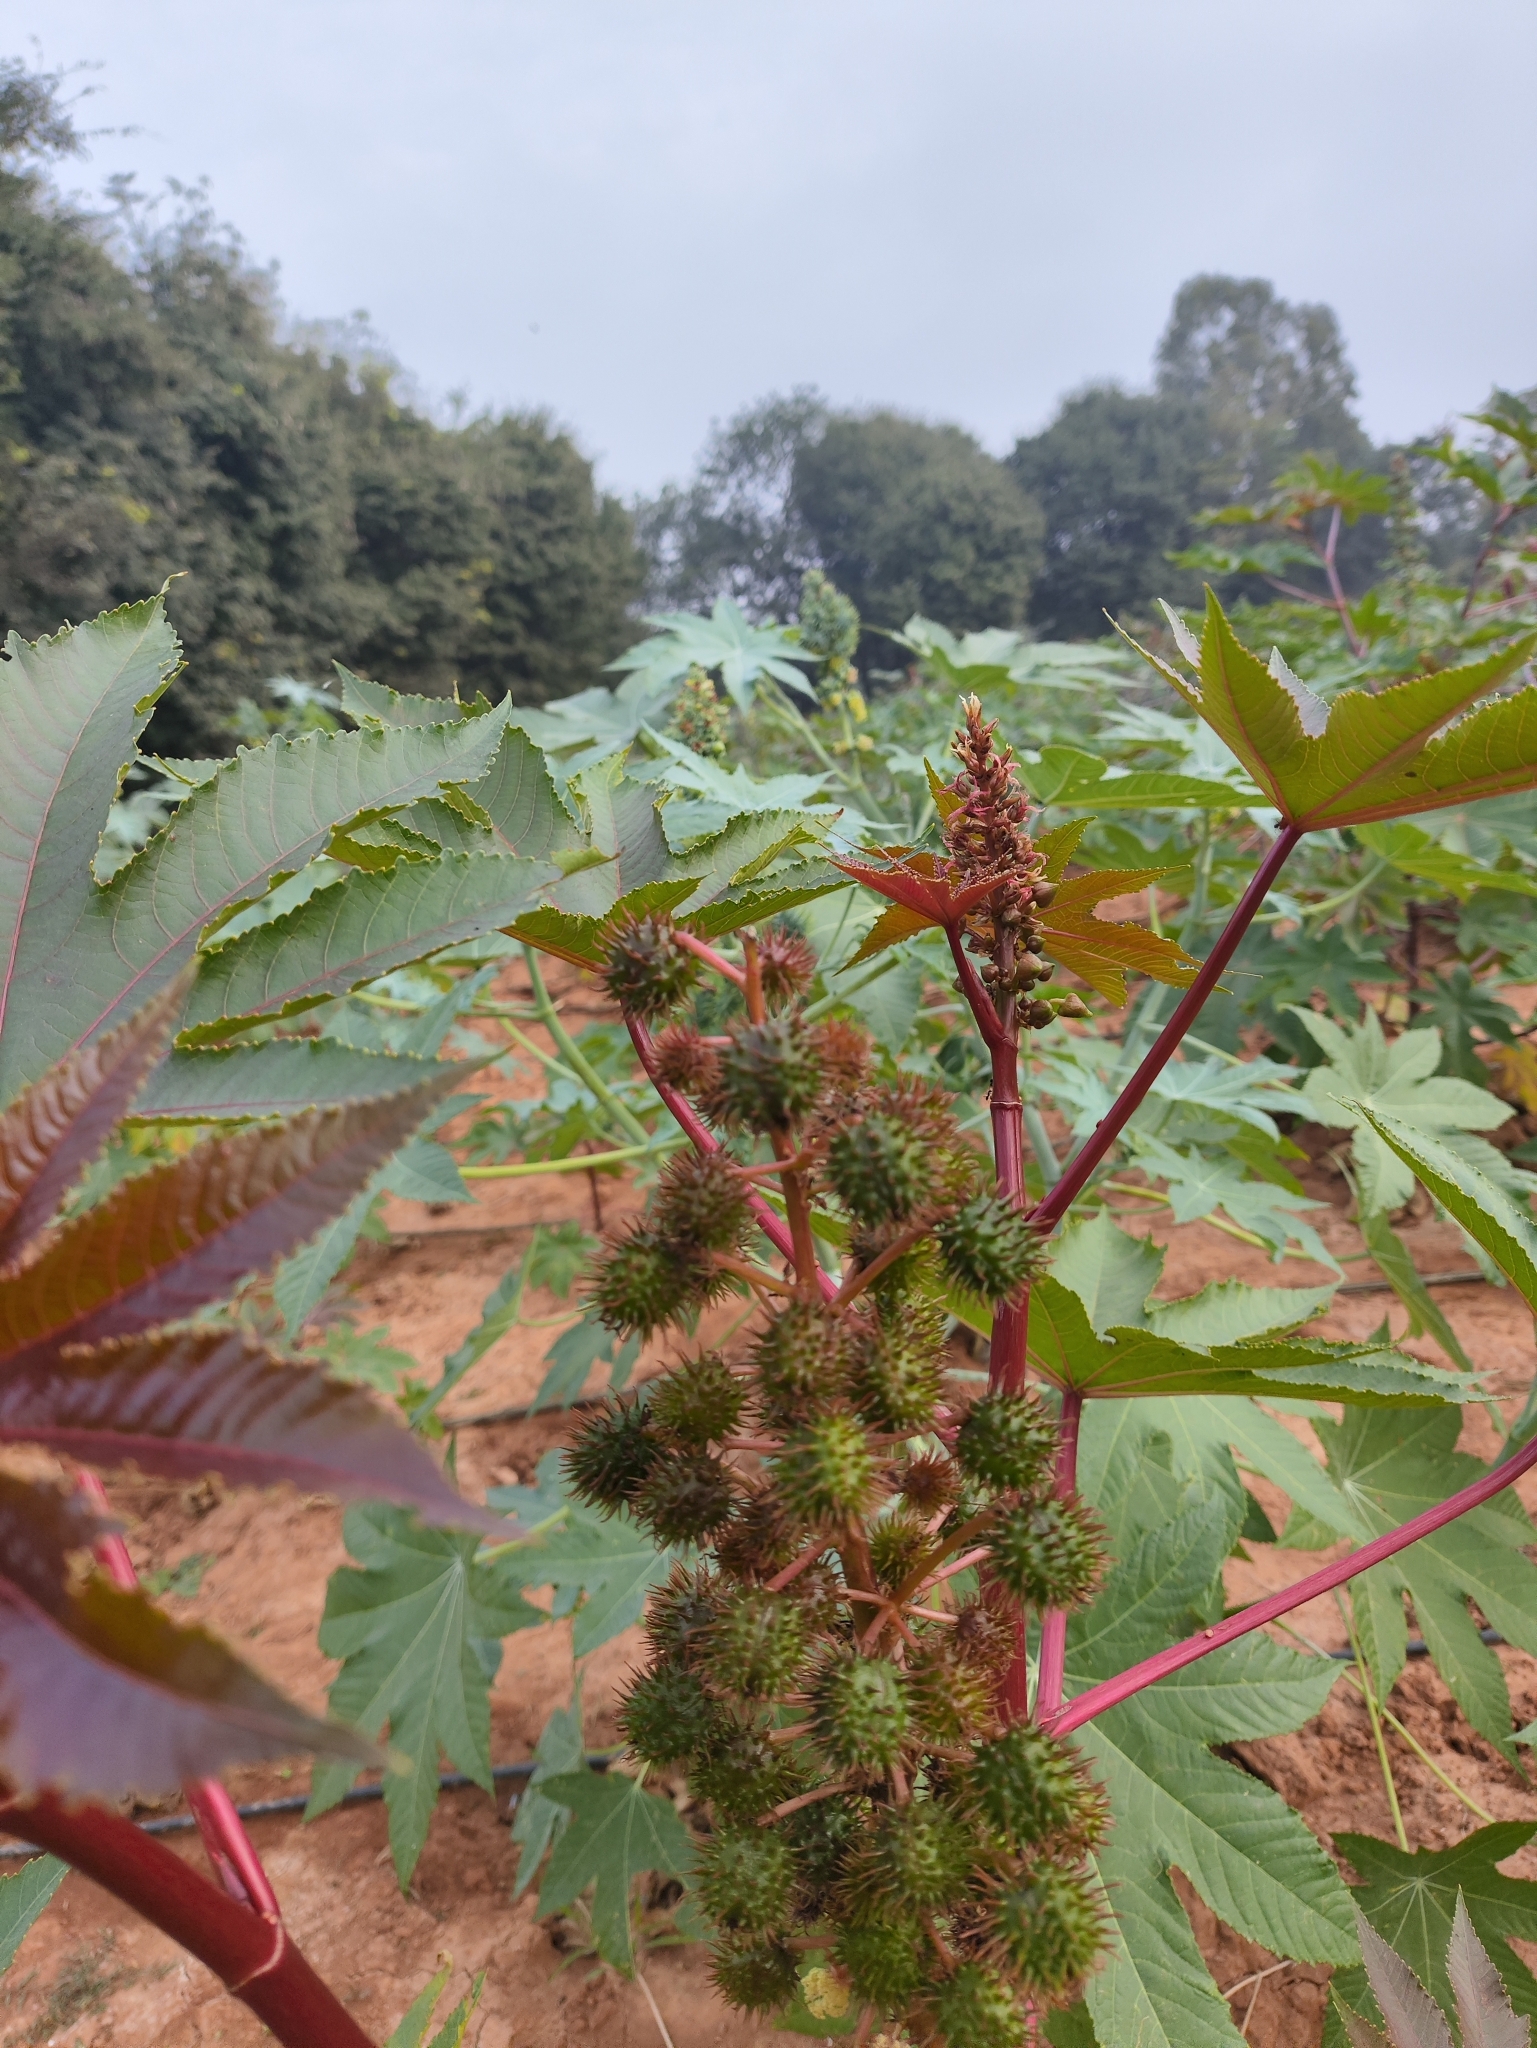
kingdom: Plantae
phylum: Tracheophyta
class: Magnoliopsida
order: Malpighiales
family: Euphorbiaceae
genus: Ricinus
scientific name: Ricinus communis
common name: Castor-oil-plant
